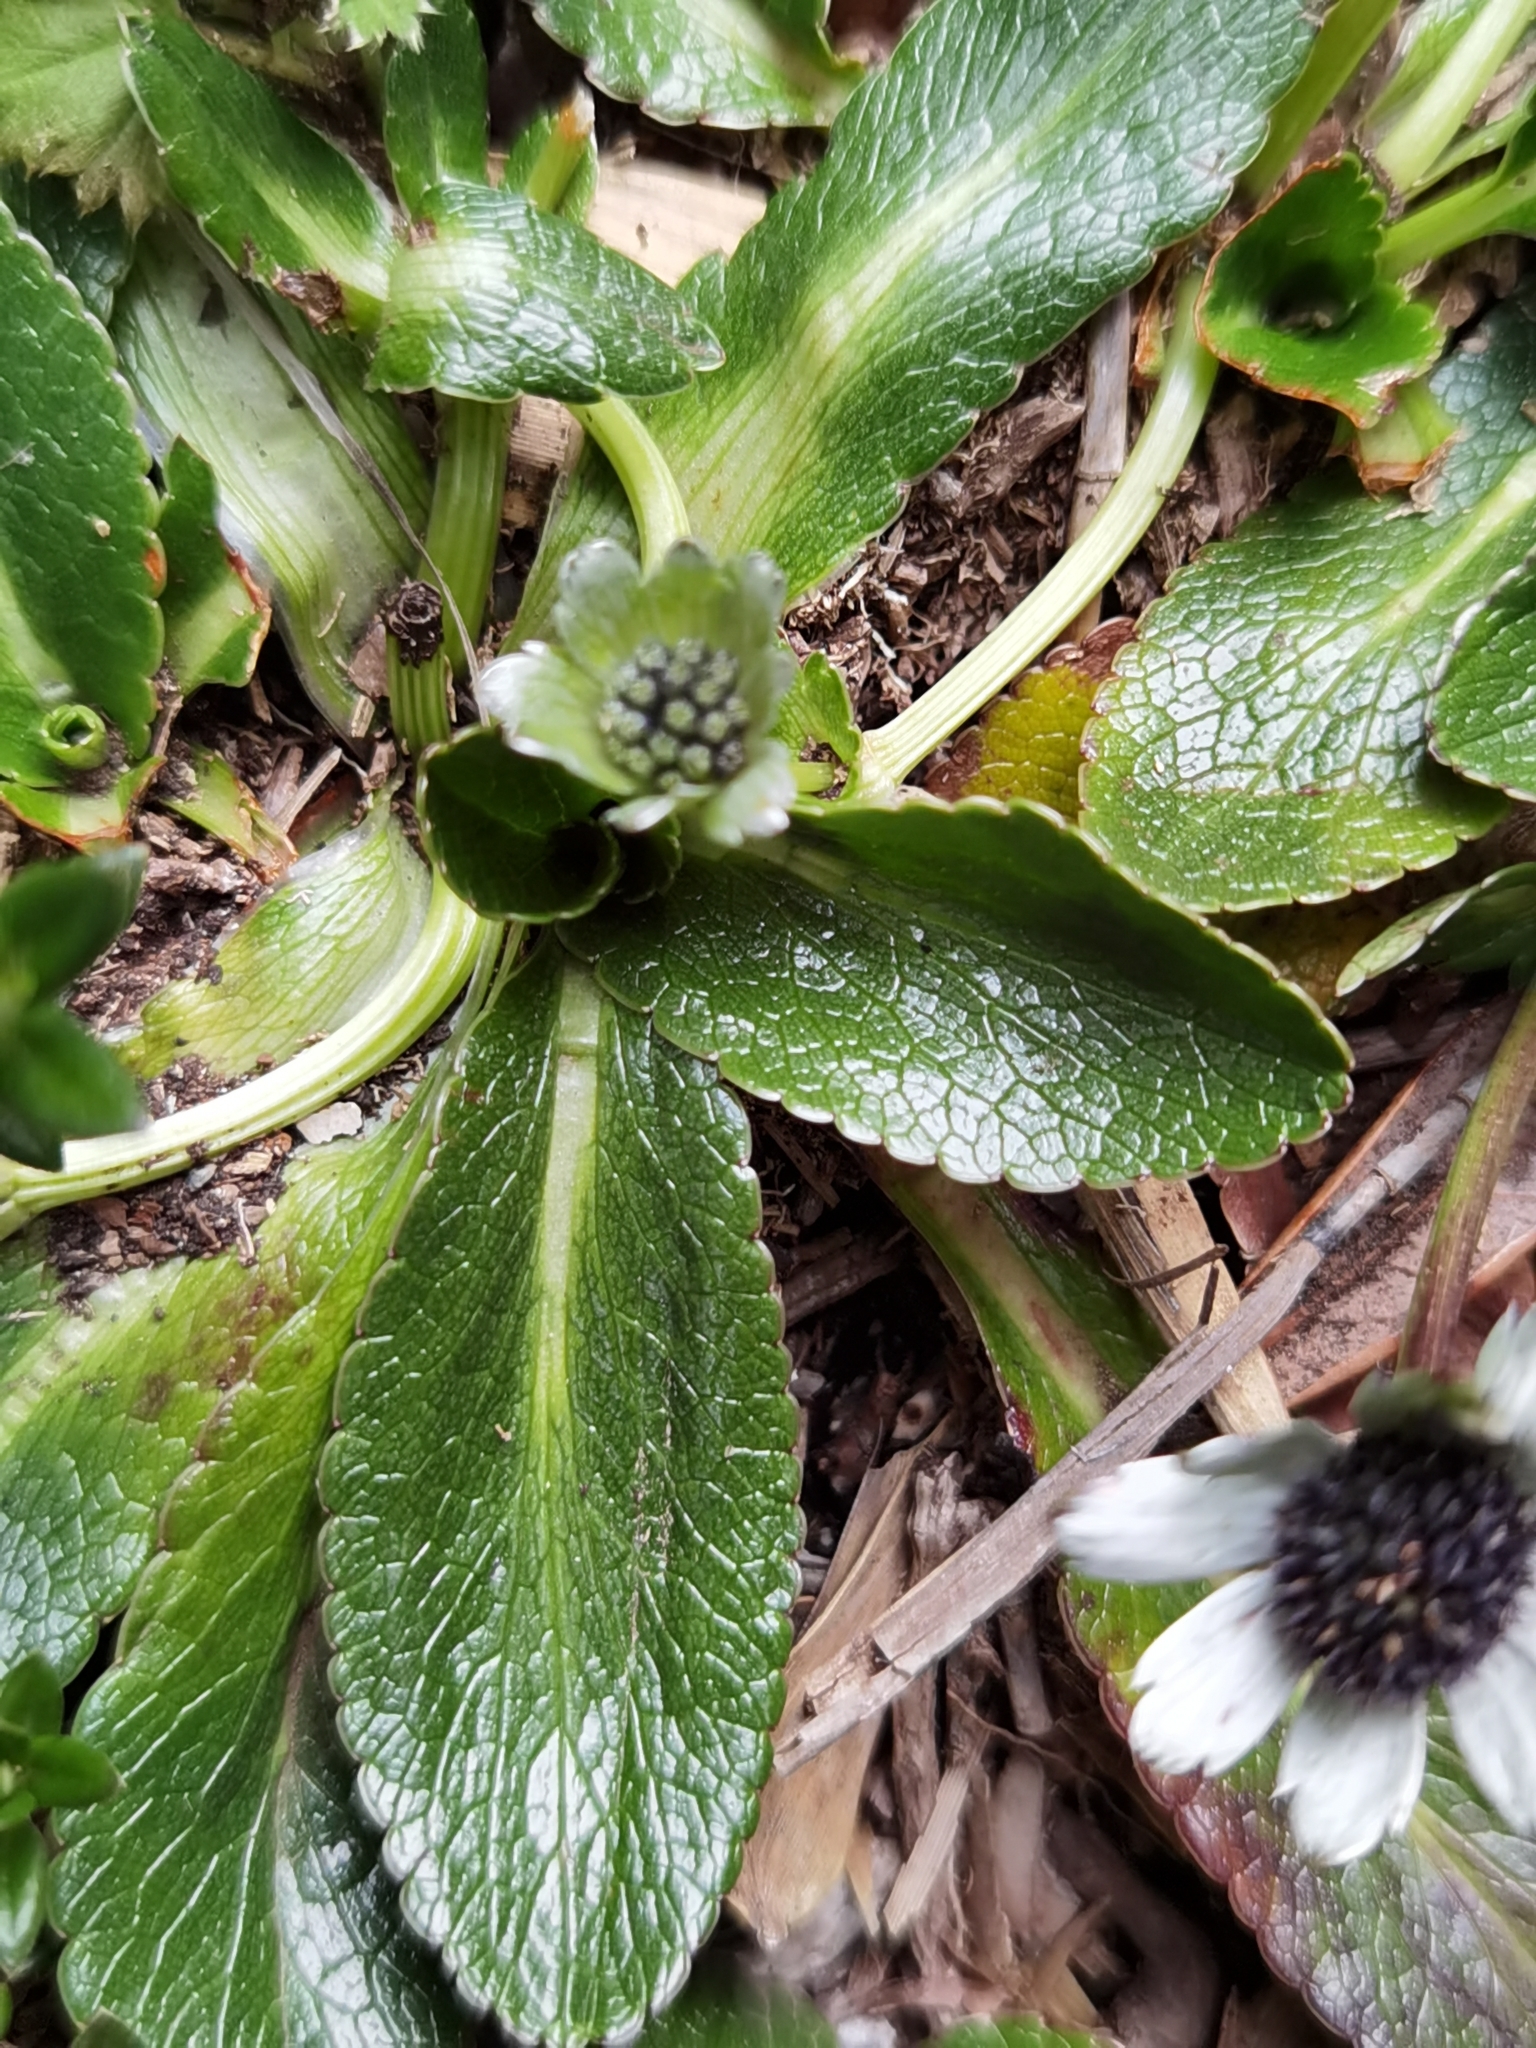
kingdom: Plantae
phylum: Tracheophyta
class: Magnoliopsida
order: Apiales
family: Apiaceae
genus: Eryngium
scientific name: Eryngium humile
